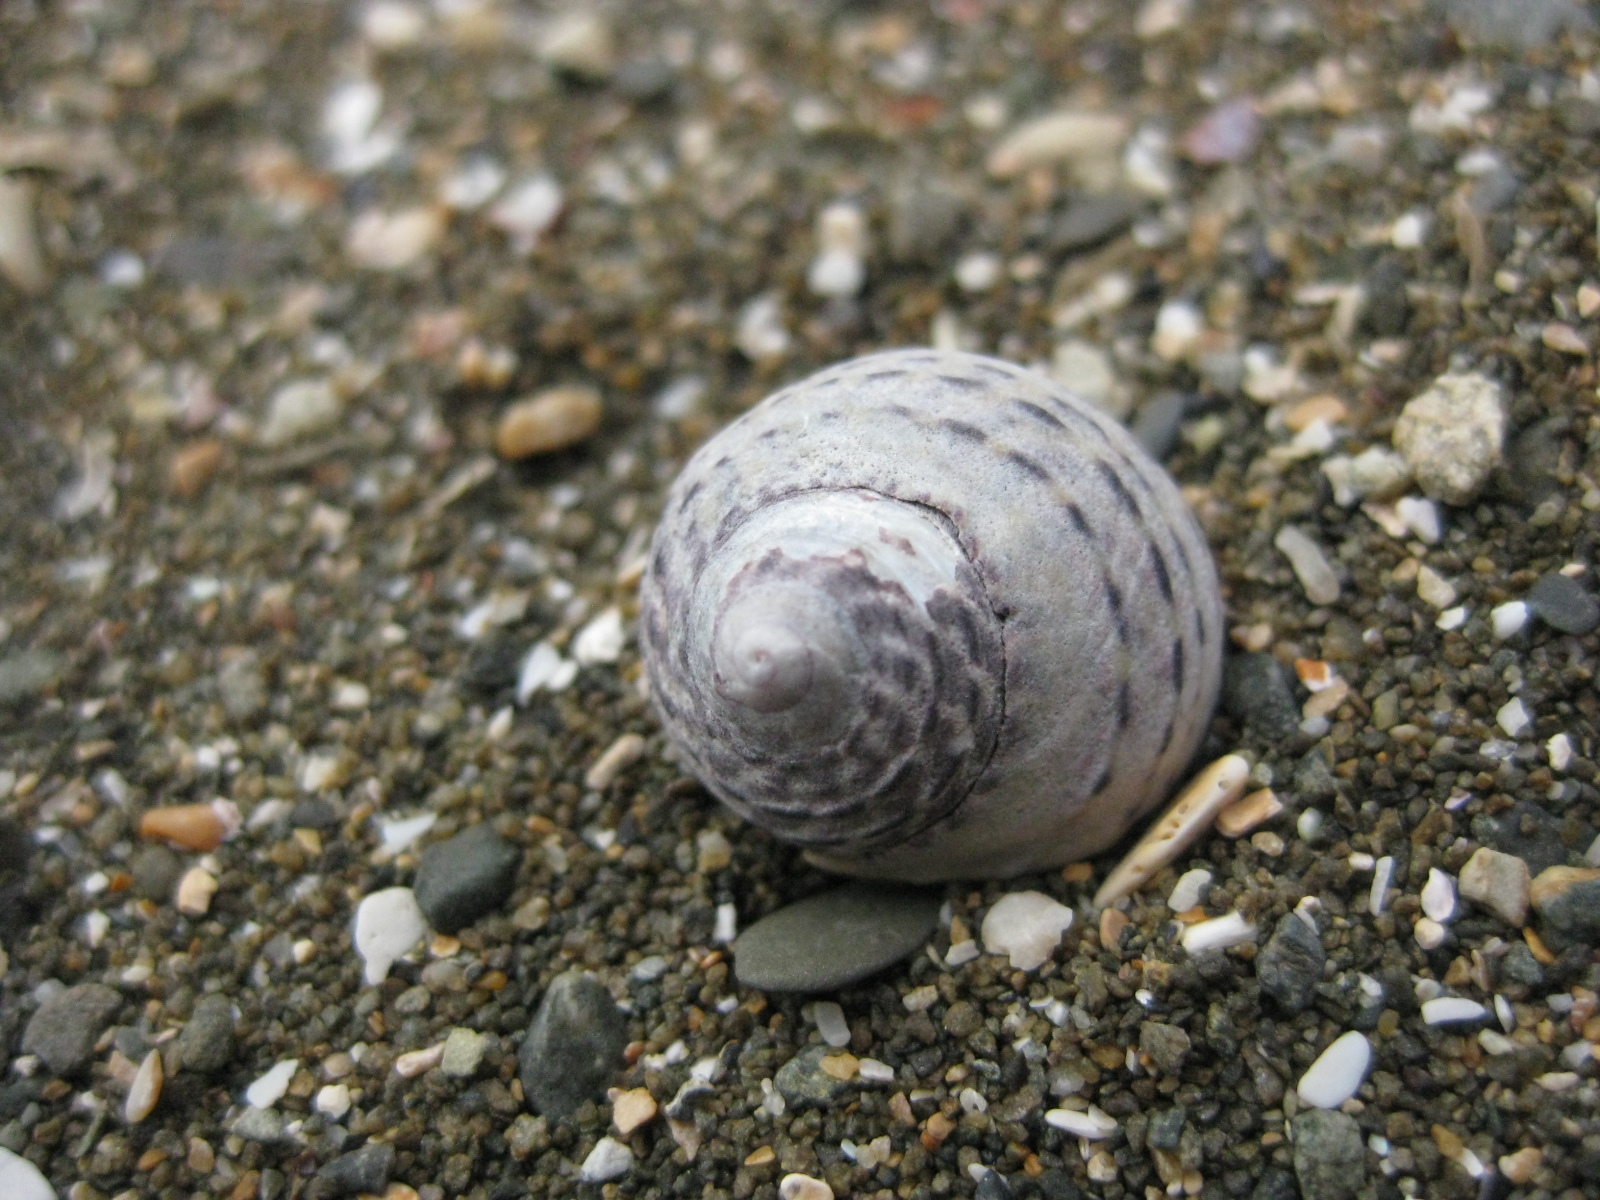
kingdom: Animalia
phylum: Mollusca
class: Gastropoda
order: Trochida
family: Trochidae
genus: Diloma
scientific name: Diloma subrostratum
